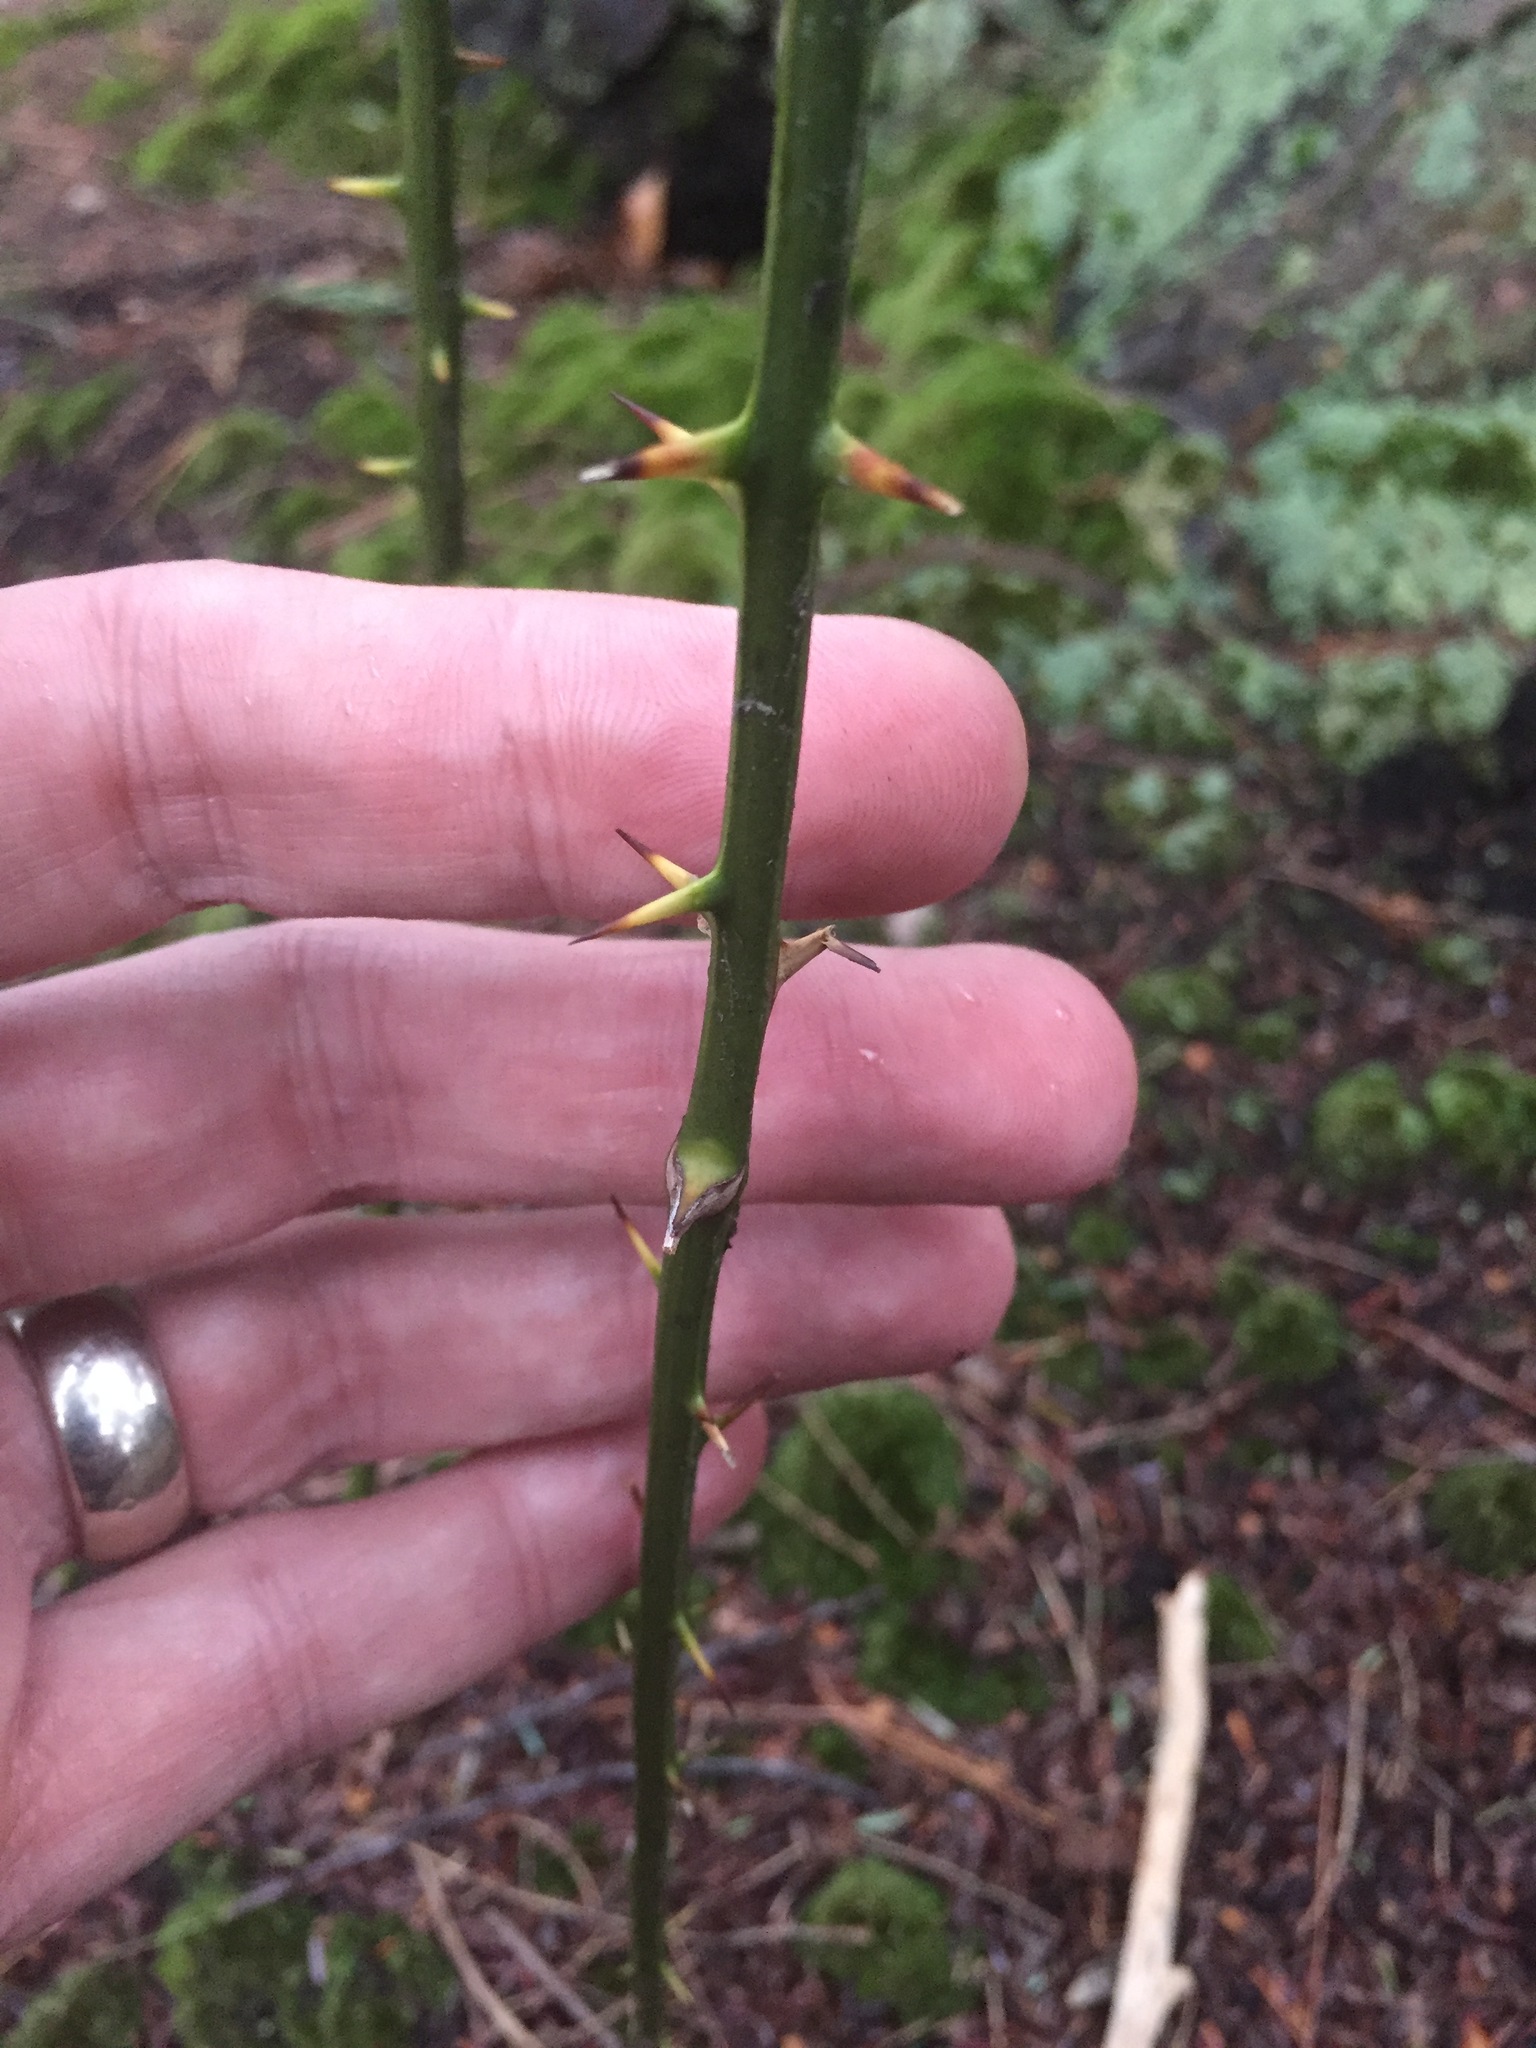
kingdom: Plantae
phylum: Tracheophyta
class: Liliopsida
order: Liliales
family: Smilacaceae
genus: Smilax
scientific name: Smilax rotundifolia
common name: Bullbriar
